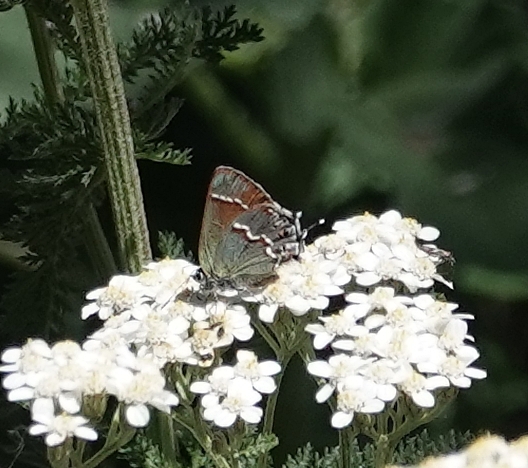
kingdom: Animalia
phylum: Arthropoda
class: Insecta
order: Lepidoptera
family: Lycaenidae
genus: Mitoura
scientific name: Mitoura gryneus
